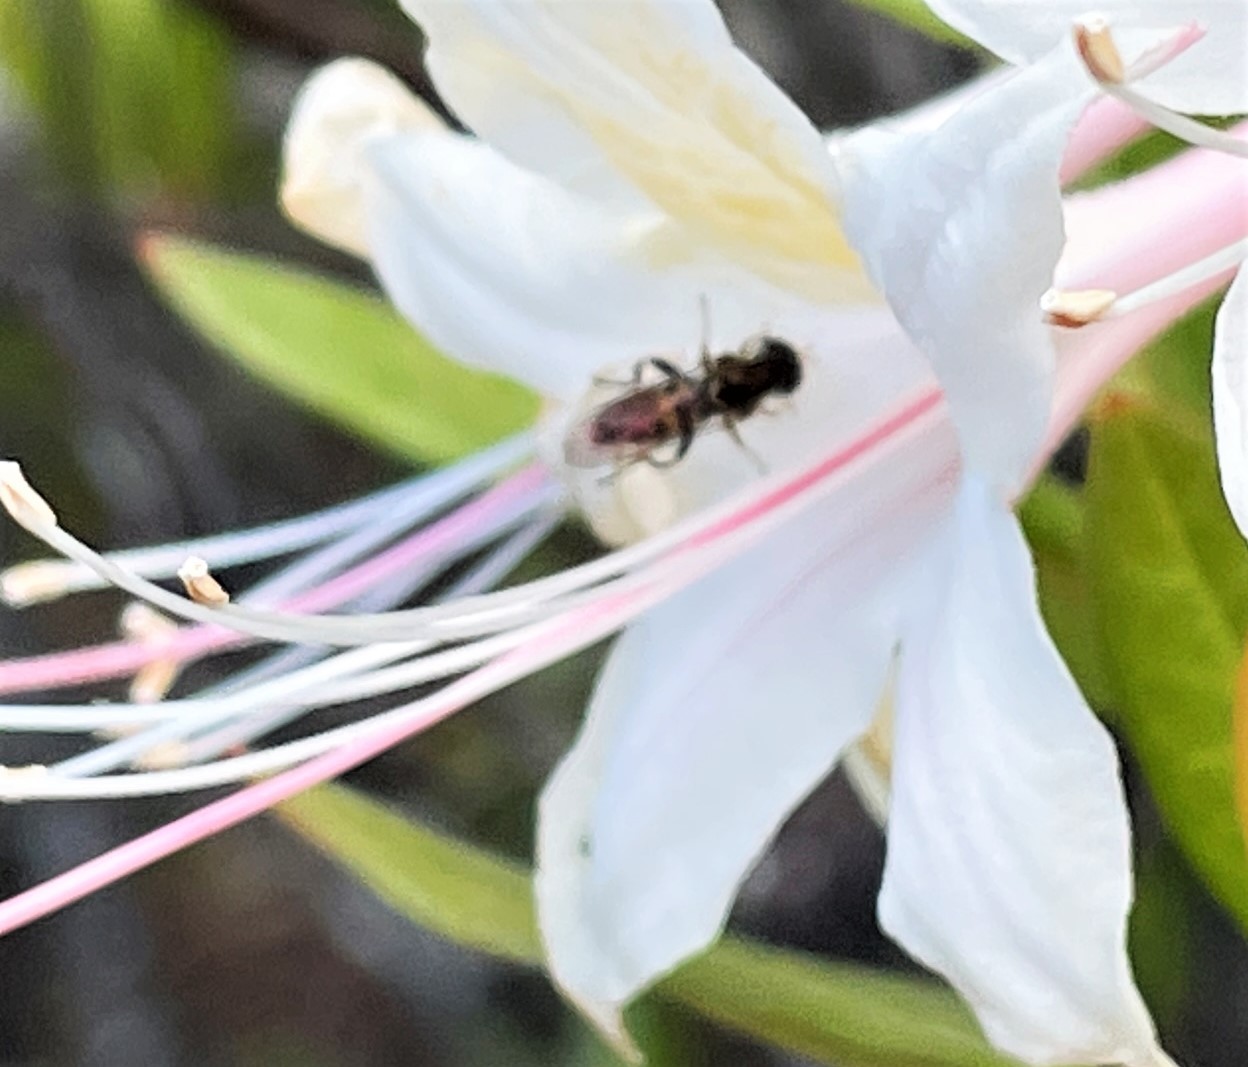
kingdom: Animalia
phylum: Arthropoda
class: Insecta
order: Diptera
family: Syrphidae
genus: Toxomerus
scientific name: Toxomerus occidentalis
